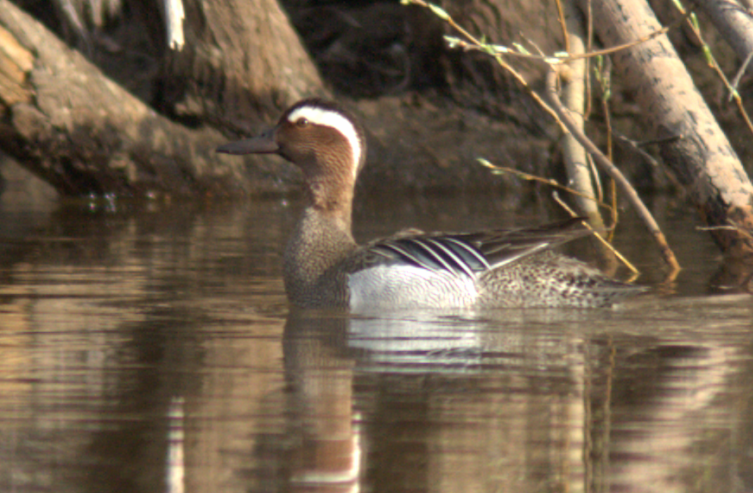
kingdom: Animalia
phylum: Chordata
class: Aves
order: Anseriformes
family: Anatidae
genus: Spatula
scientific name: Spatula querquedula
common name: Garganey
